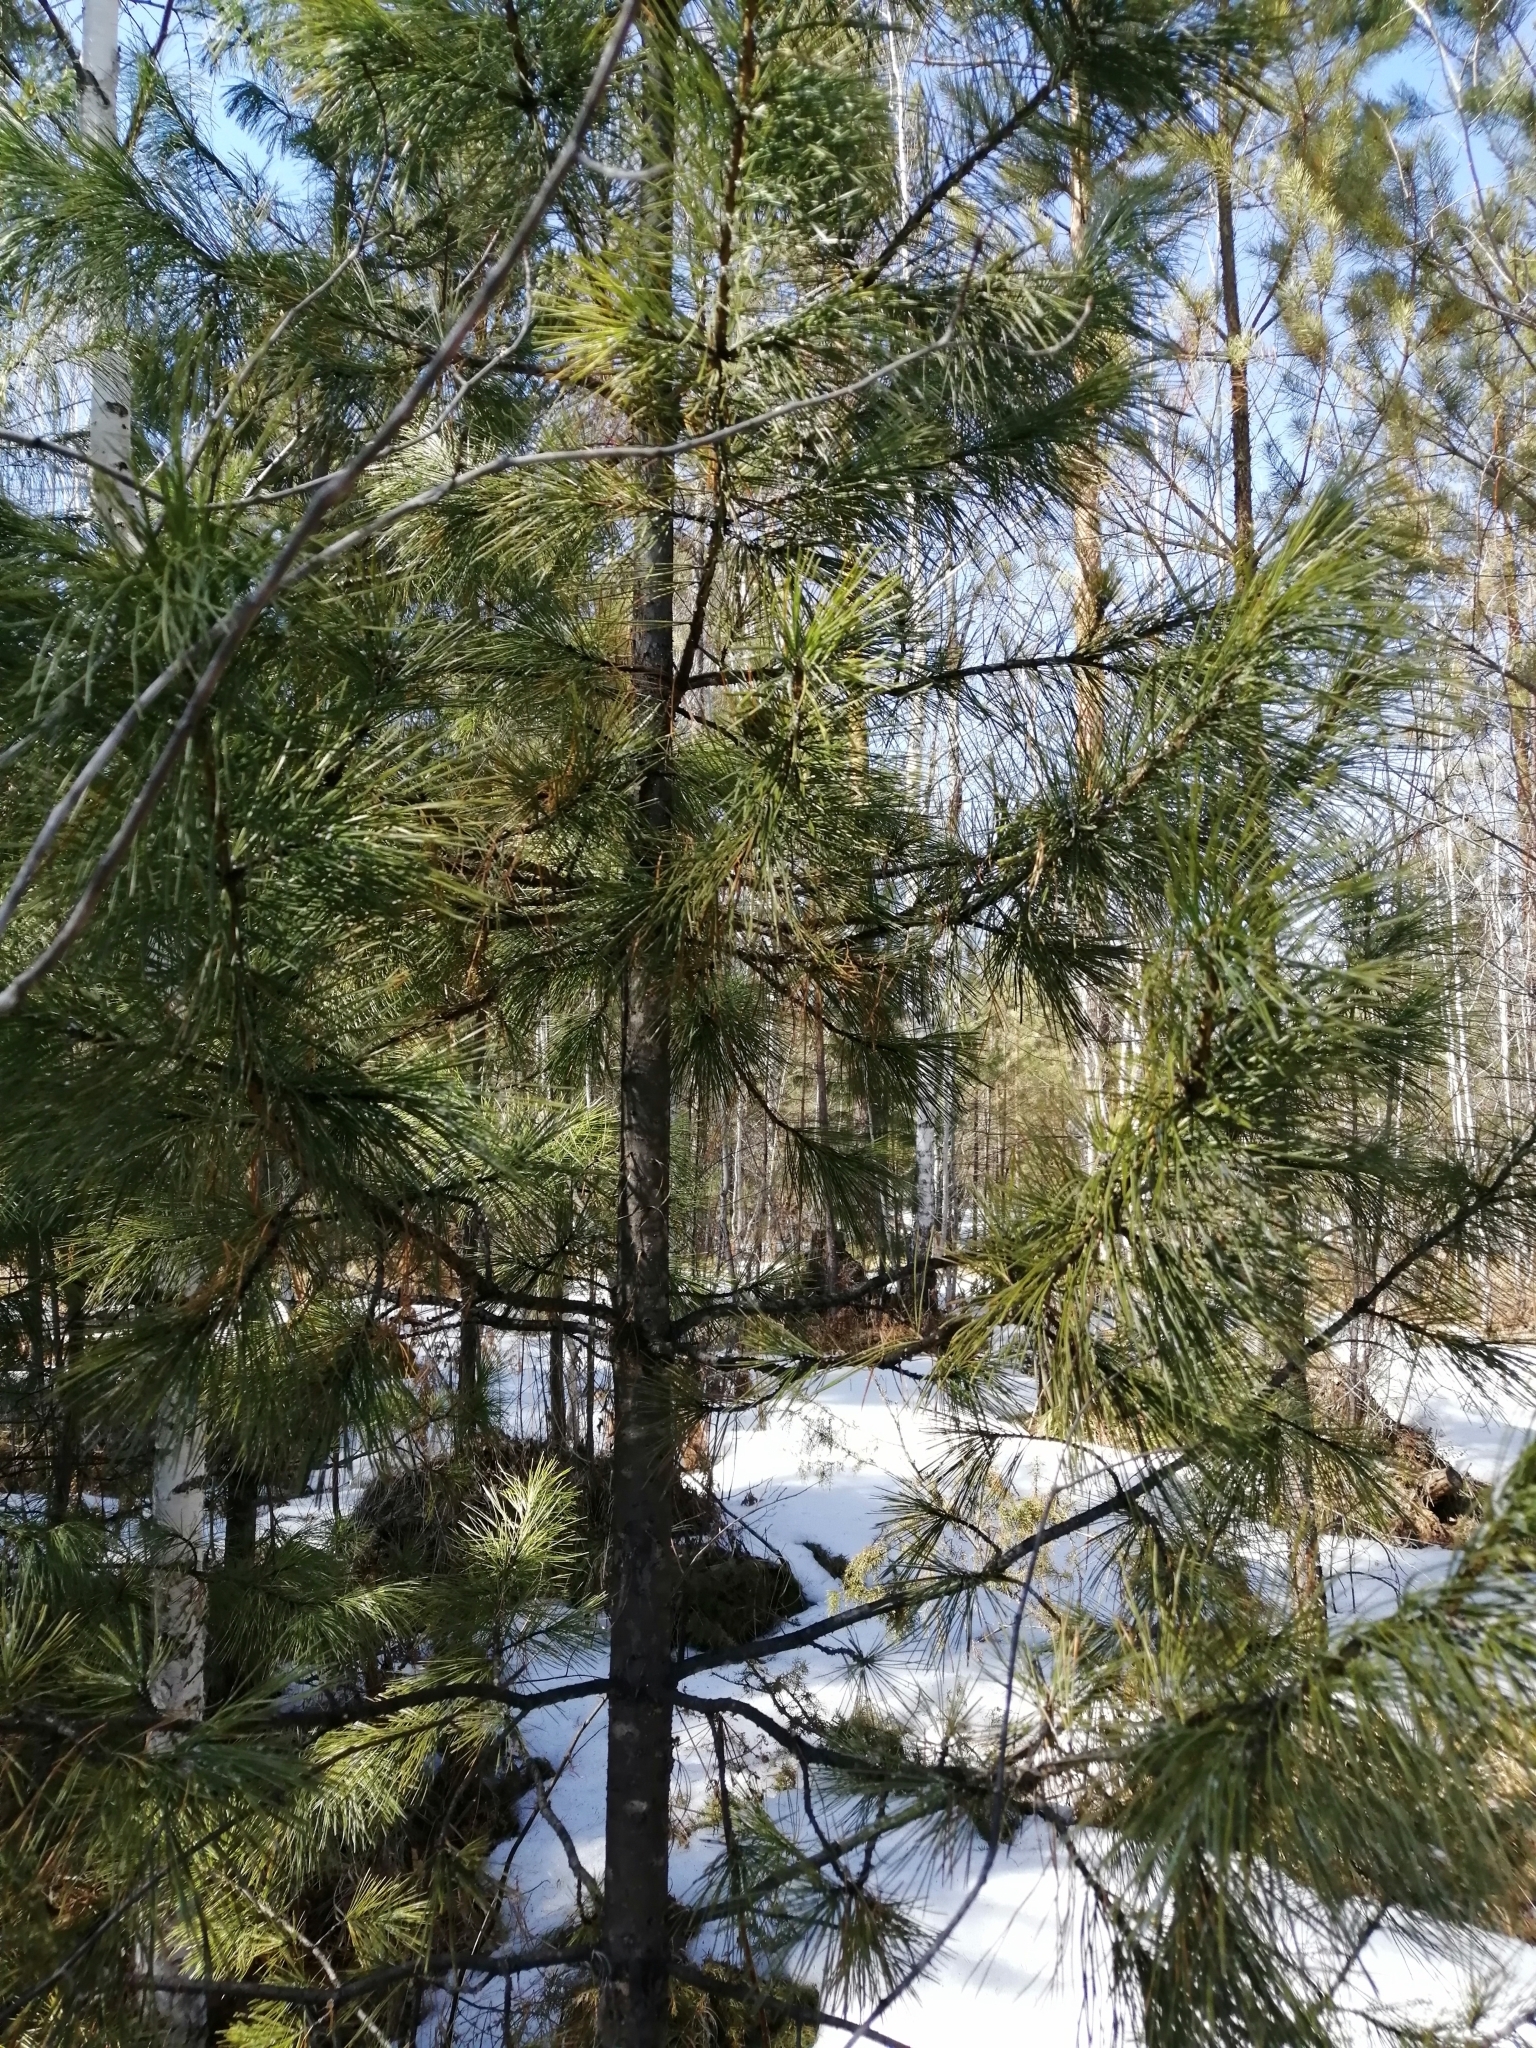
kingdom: Plantae
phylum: Tracheophyta
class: Pinopsida
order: Pinales
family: Pinaceae
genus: Pinus
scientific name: Pinus sibirica
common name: Siberian pine
